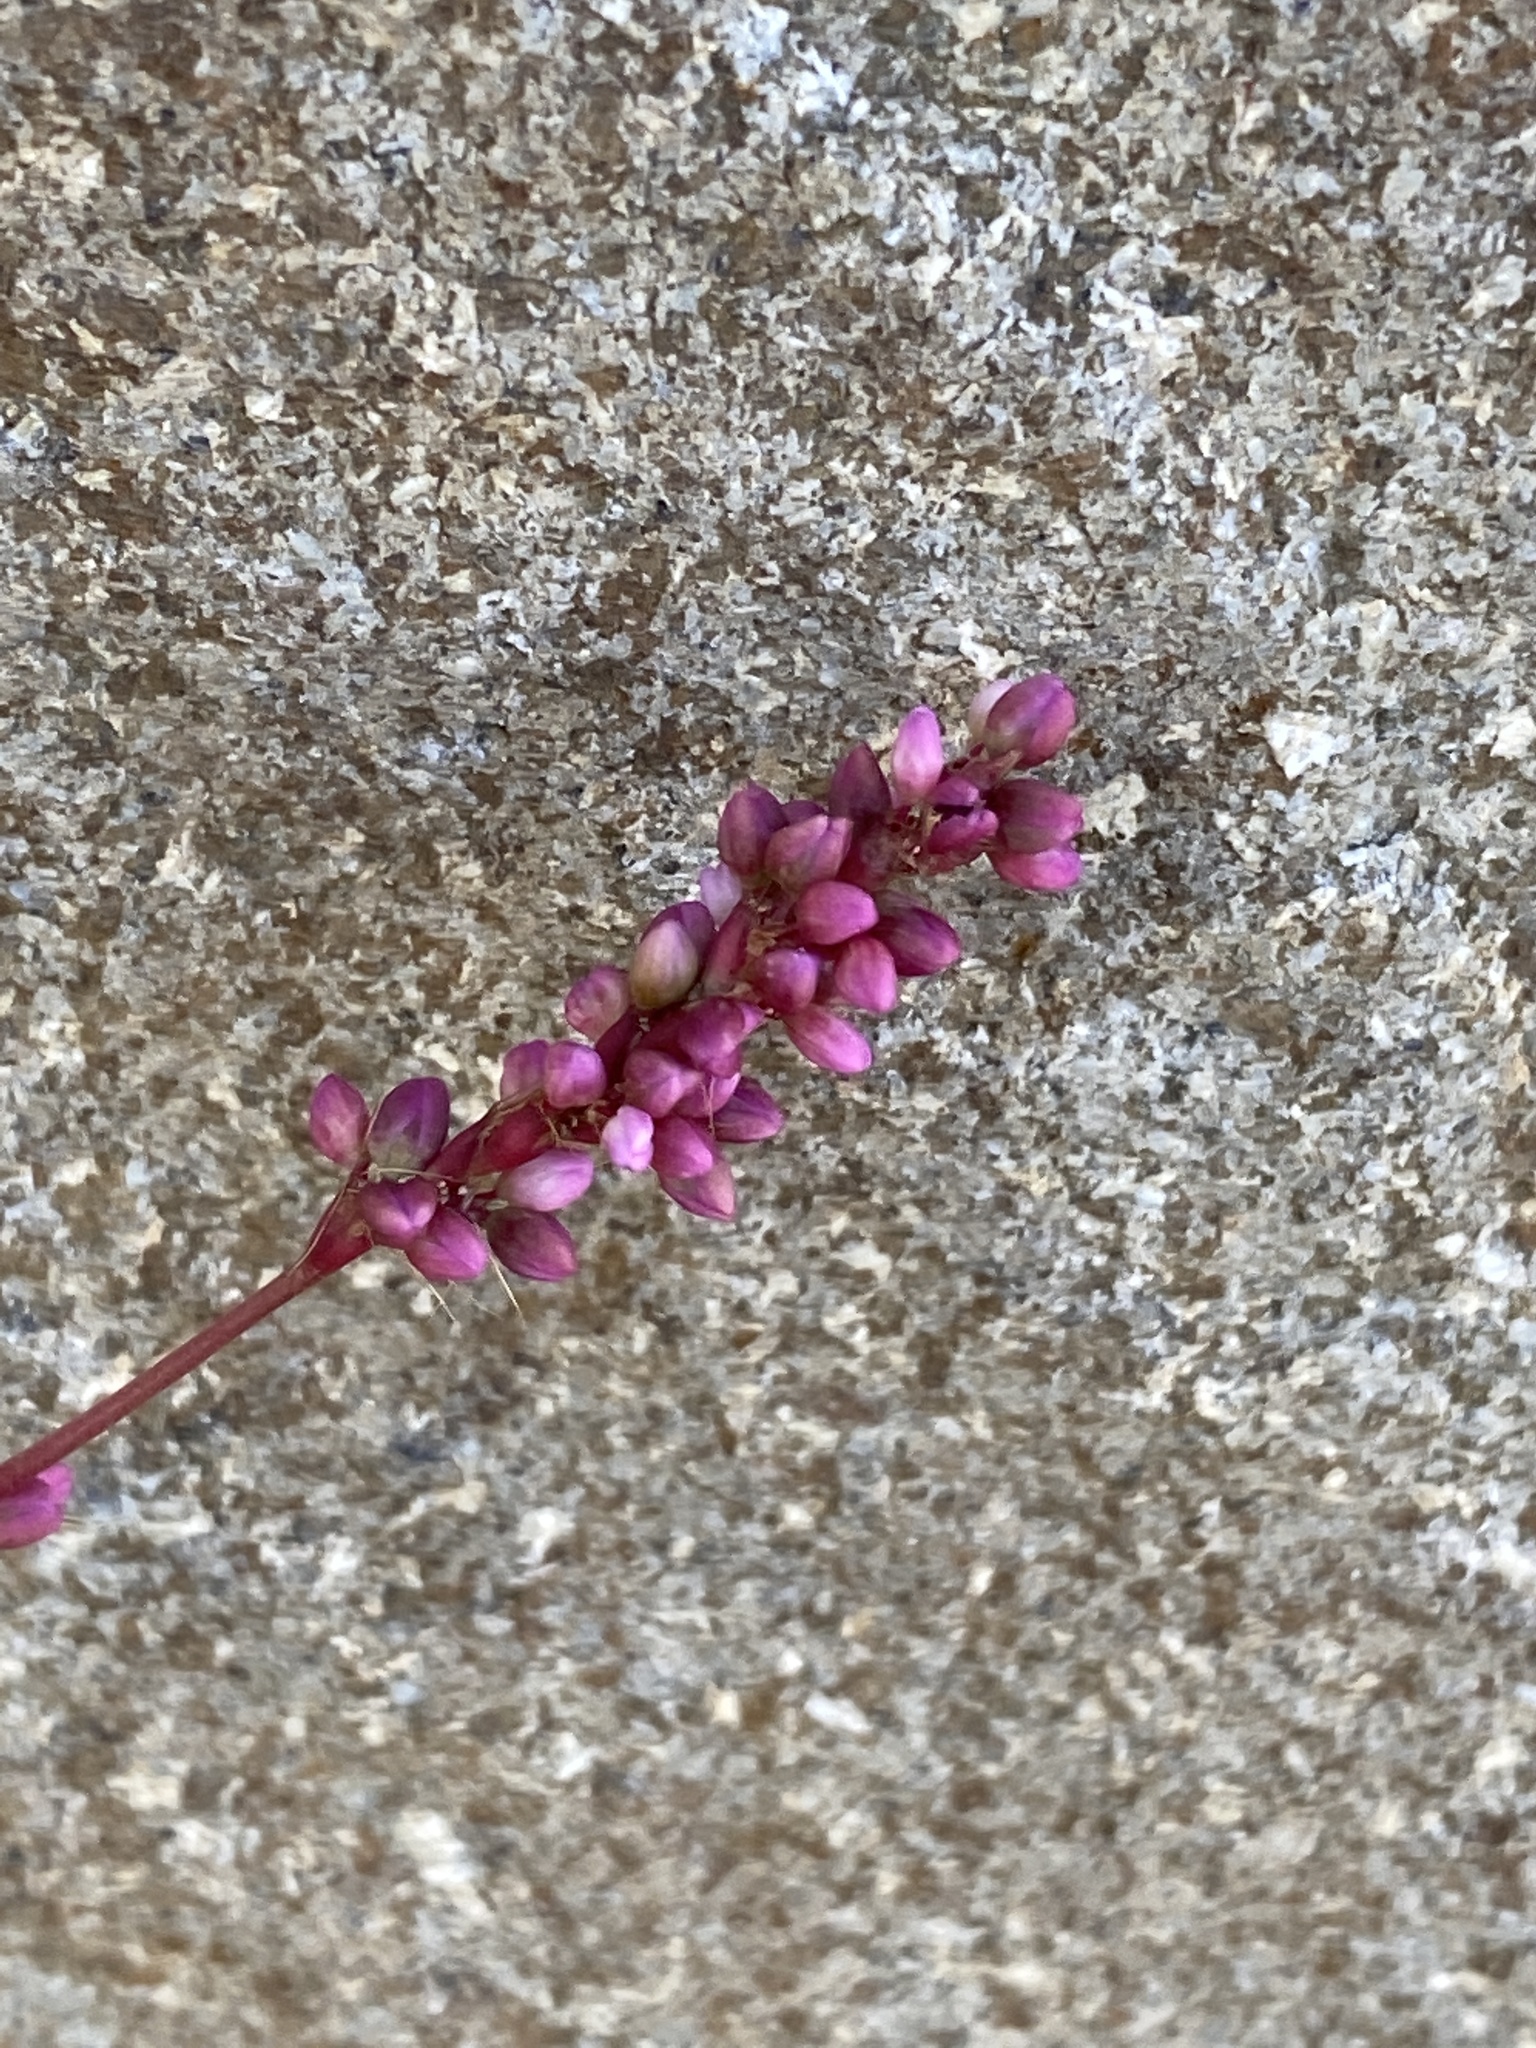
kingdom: Plantae
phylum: Tracheophyta
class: Magnoliopsida
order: Caryophyllales
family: Polygonaceae
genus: Persicaria
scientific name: Persicaria longiseta
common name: Bristly lady's-thumb
